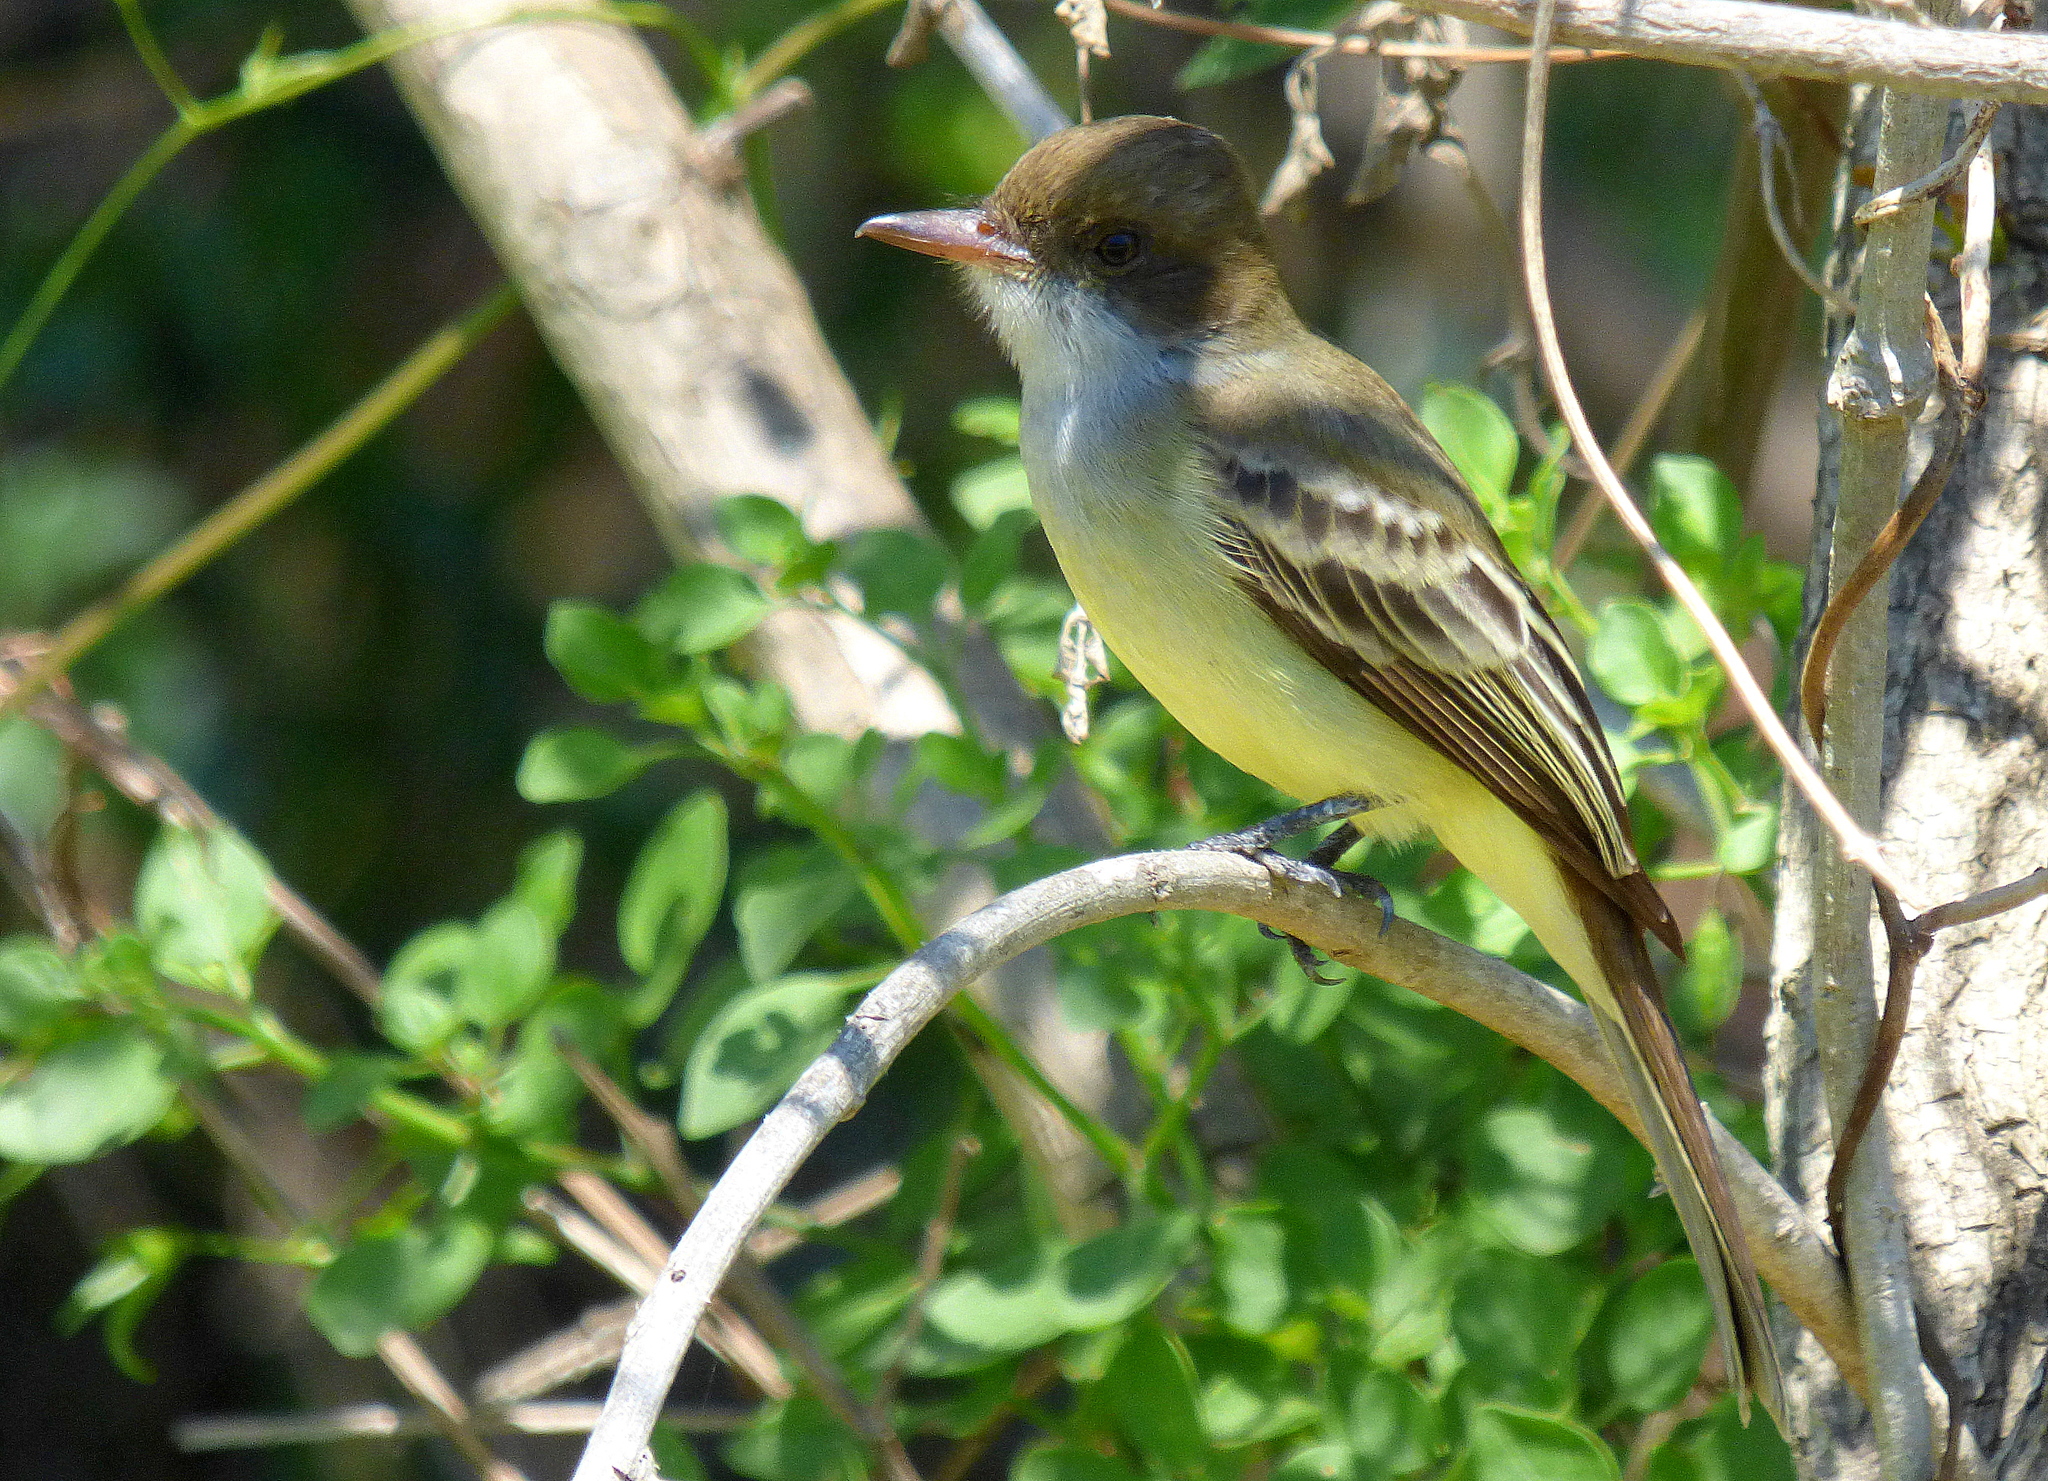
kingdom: Animalia
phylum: Chordata
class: Aves
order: Passeriformes
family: Tyrannidae
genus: Myiarchus
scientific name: Myiarchus swainsoni
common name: Swainson's flycatcher
